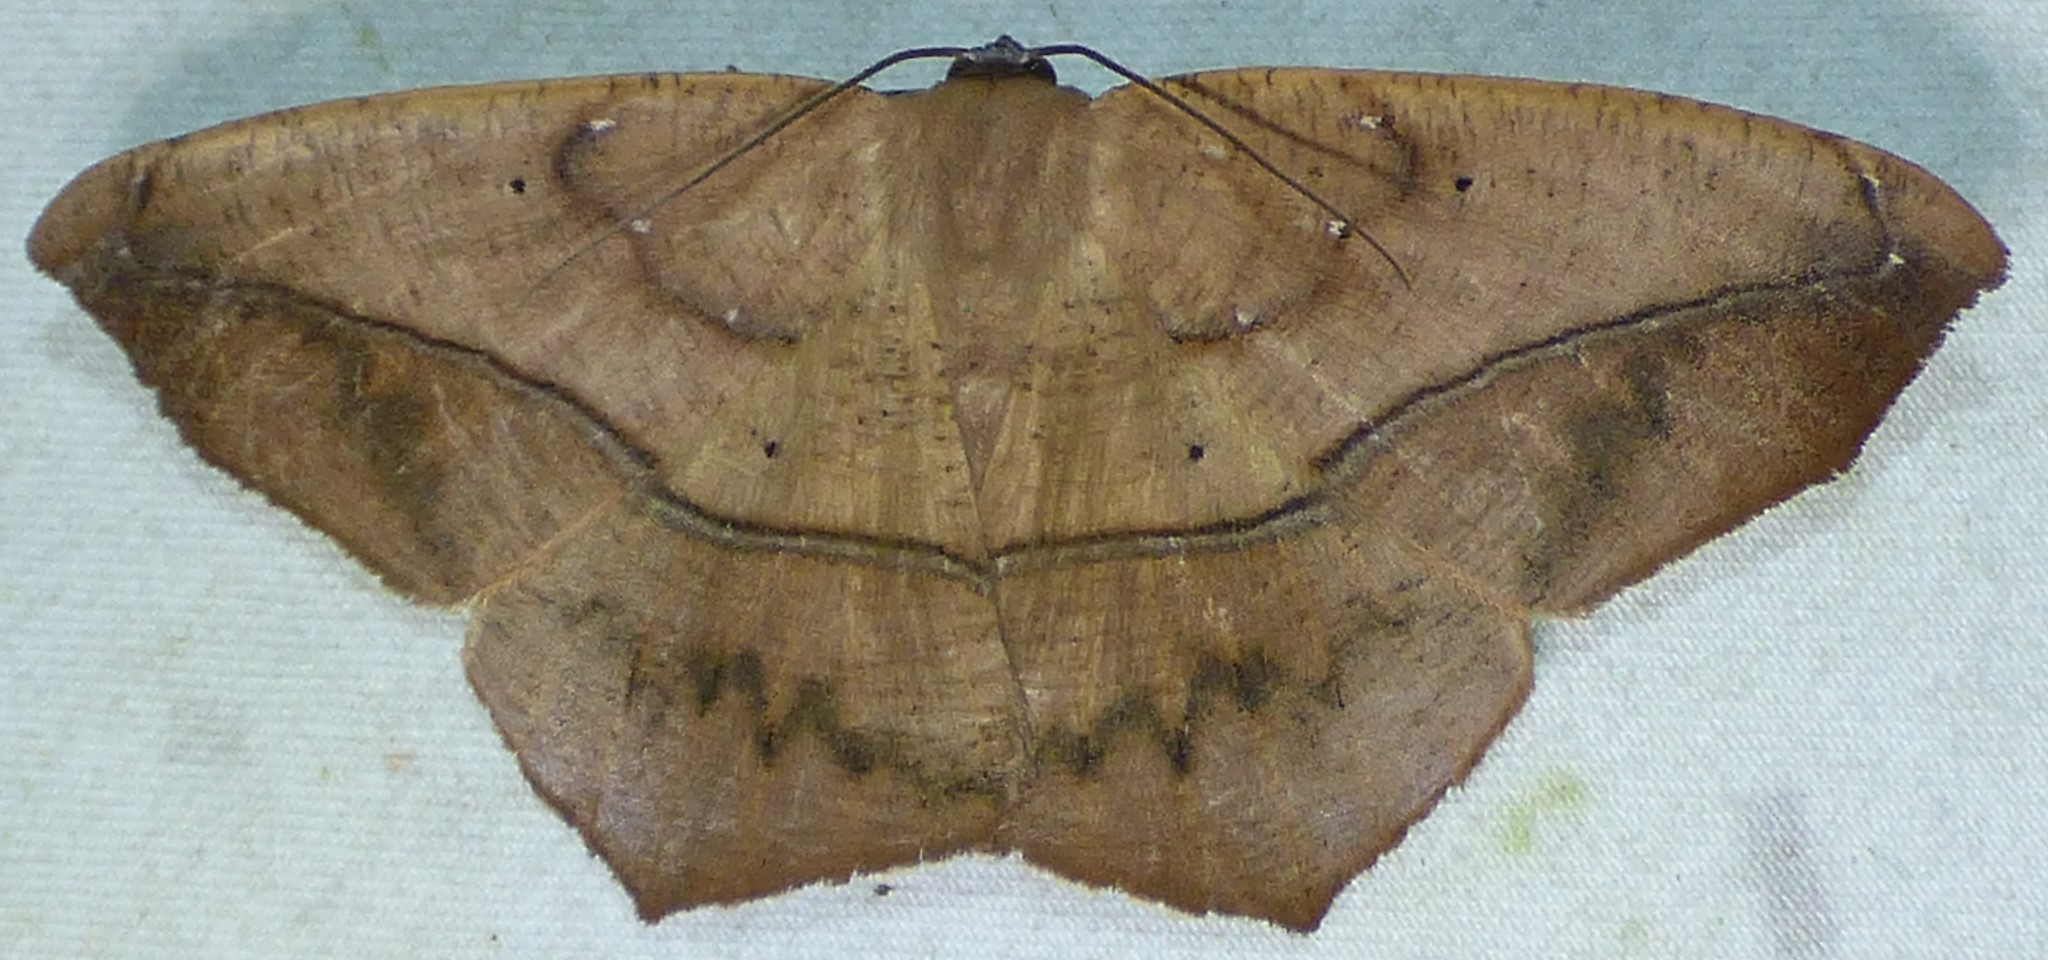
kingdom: Animalia
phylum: Arthropoda
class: Insecta
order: Lepidoptera
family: Geometridae
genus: Prochoerodes
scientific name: Prochoerodes lineola
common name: Large maple spanworm
